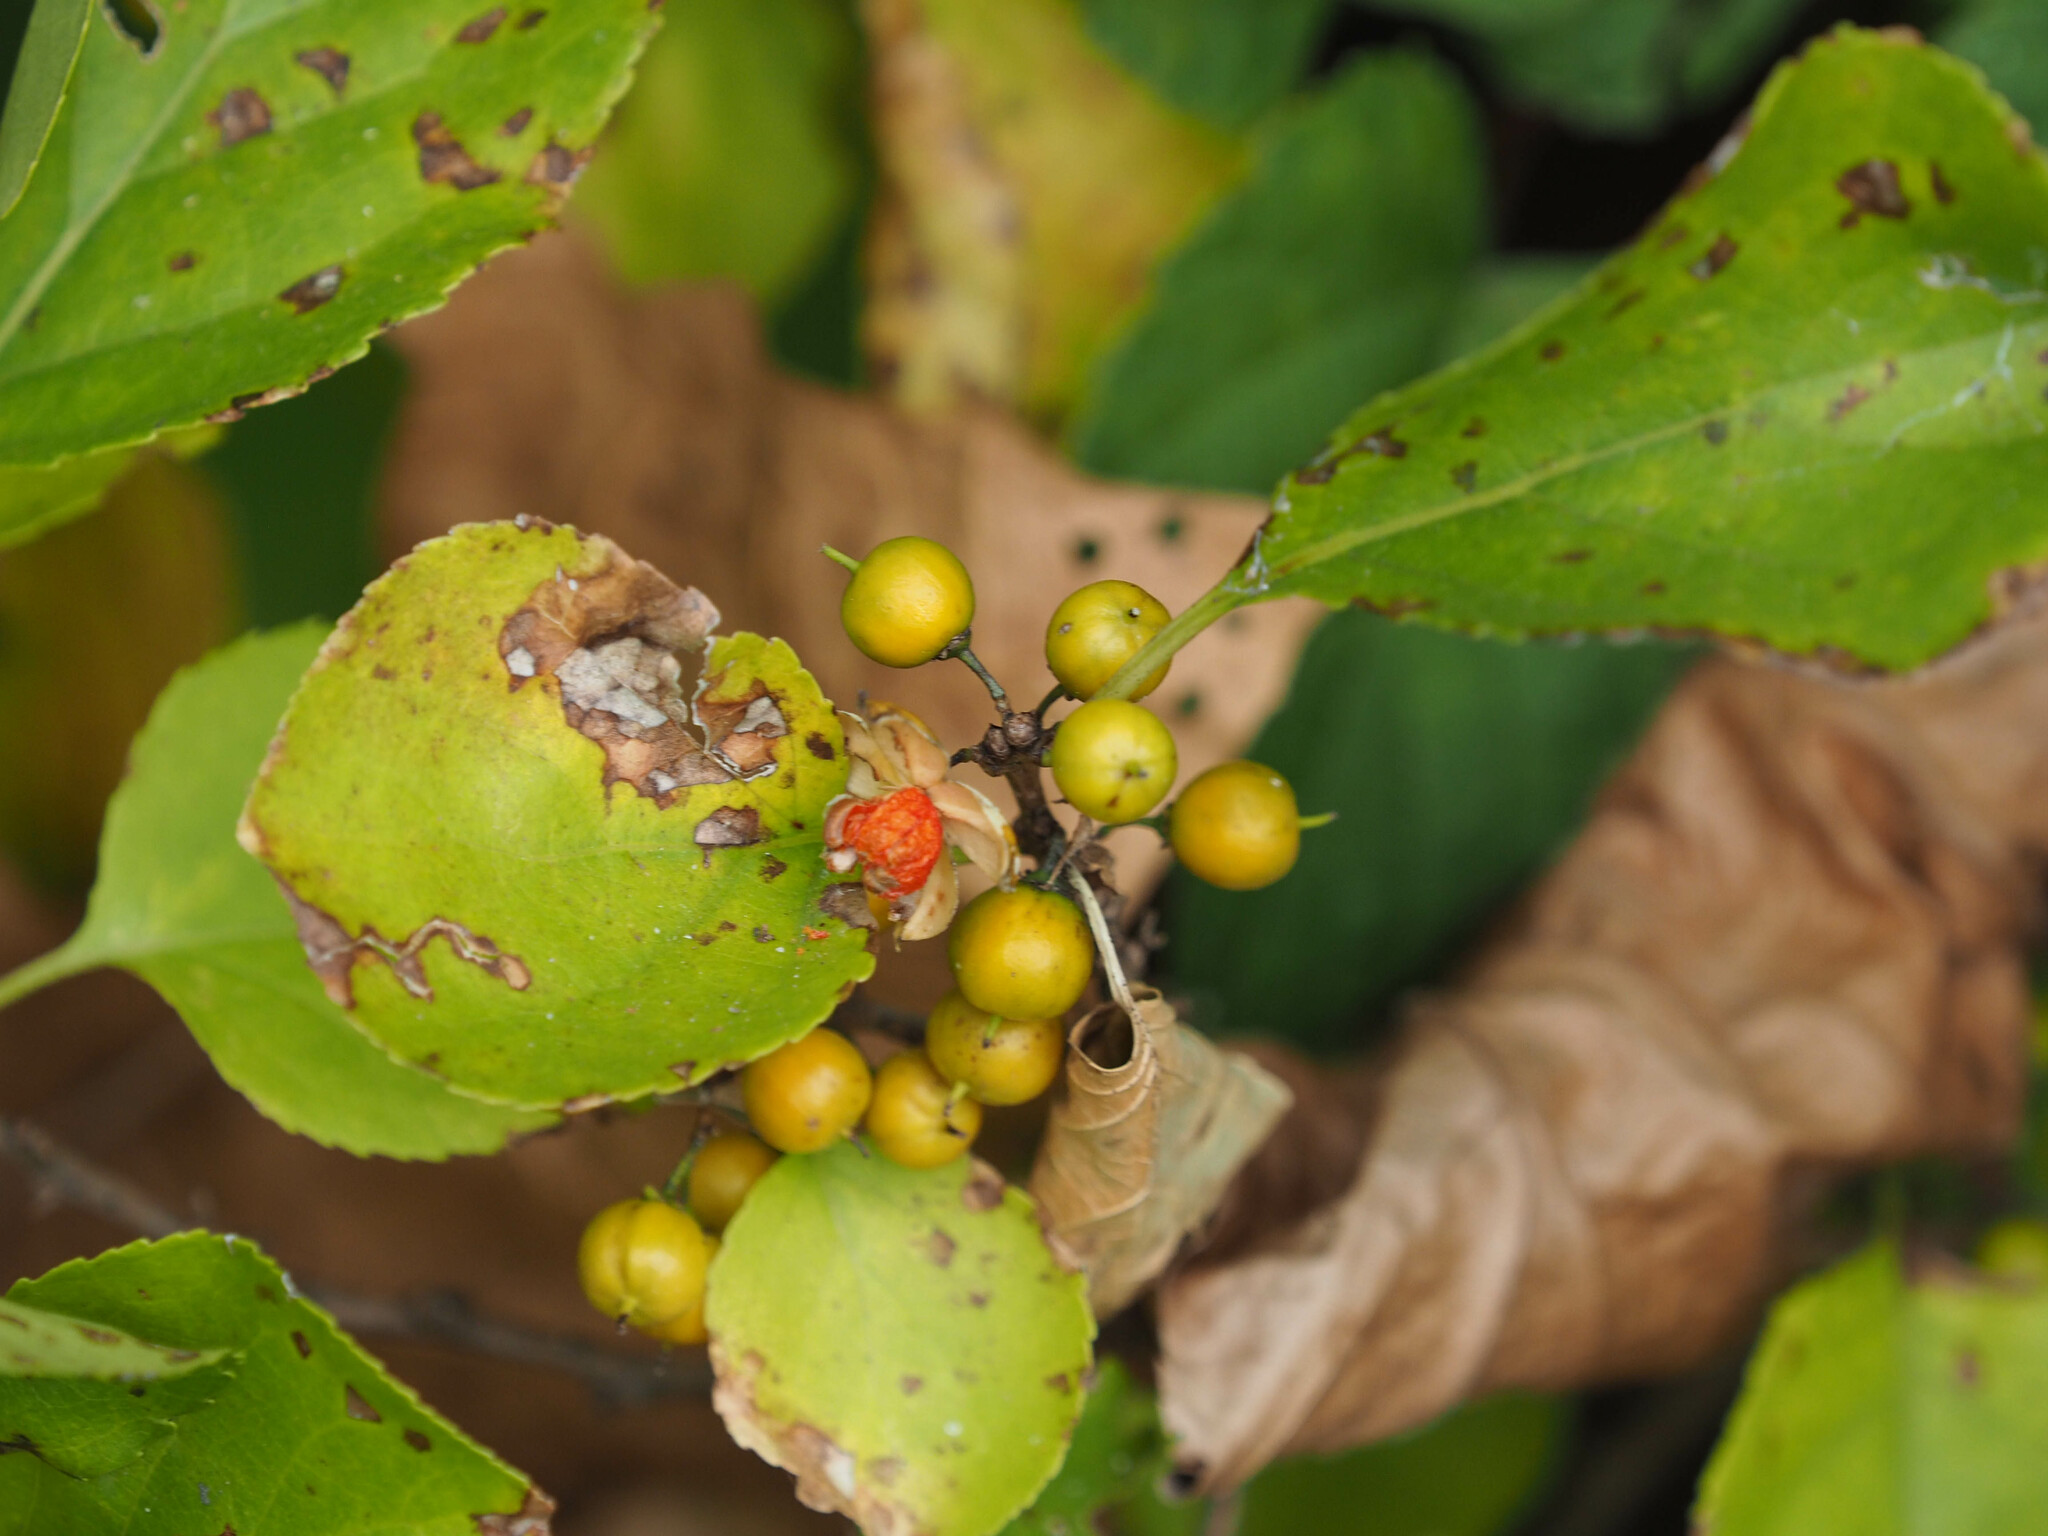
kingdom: Plantae
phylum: Tracheophyta
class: Magnoliopsida
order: Celastrales
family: Celastraceae
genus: Celastrus
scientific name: Celastrus orbiculatus
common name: Oriental bittersweet
